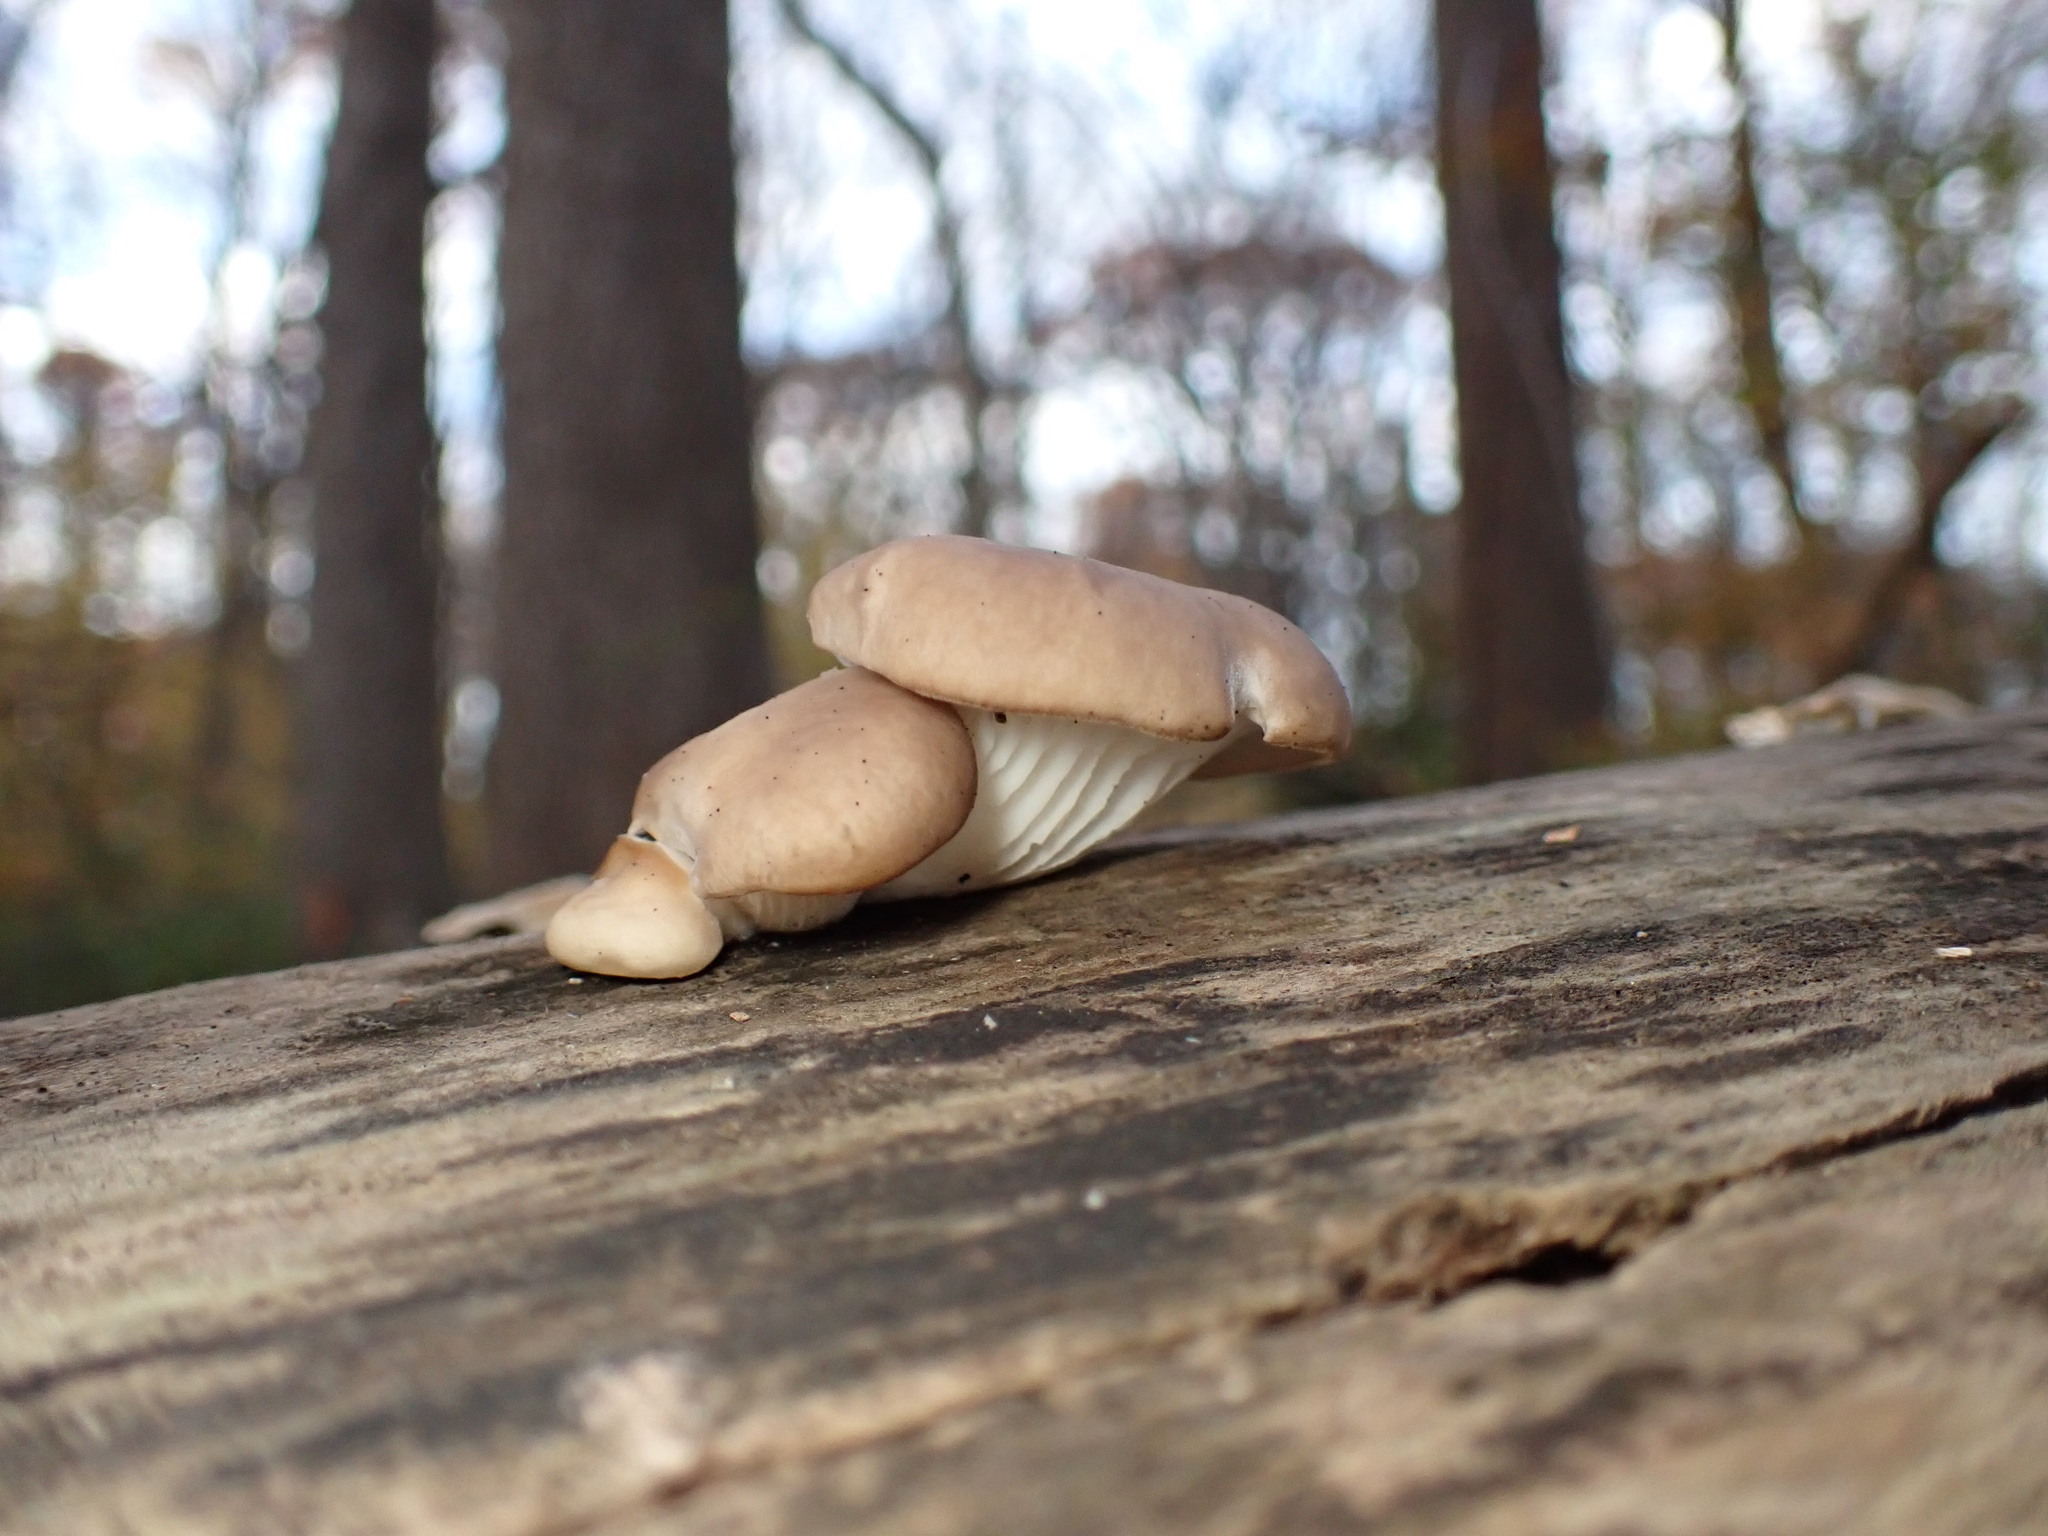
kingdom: Fungi
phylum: Basidiomycota
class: Agaricomycetes
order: Agaricales
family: Pleurotaceae
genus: Pleurotus
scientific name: Pleurotus ostreatus
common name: Oyster mushroom
